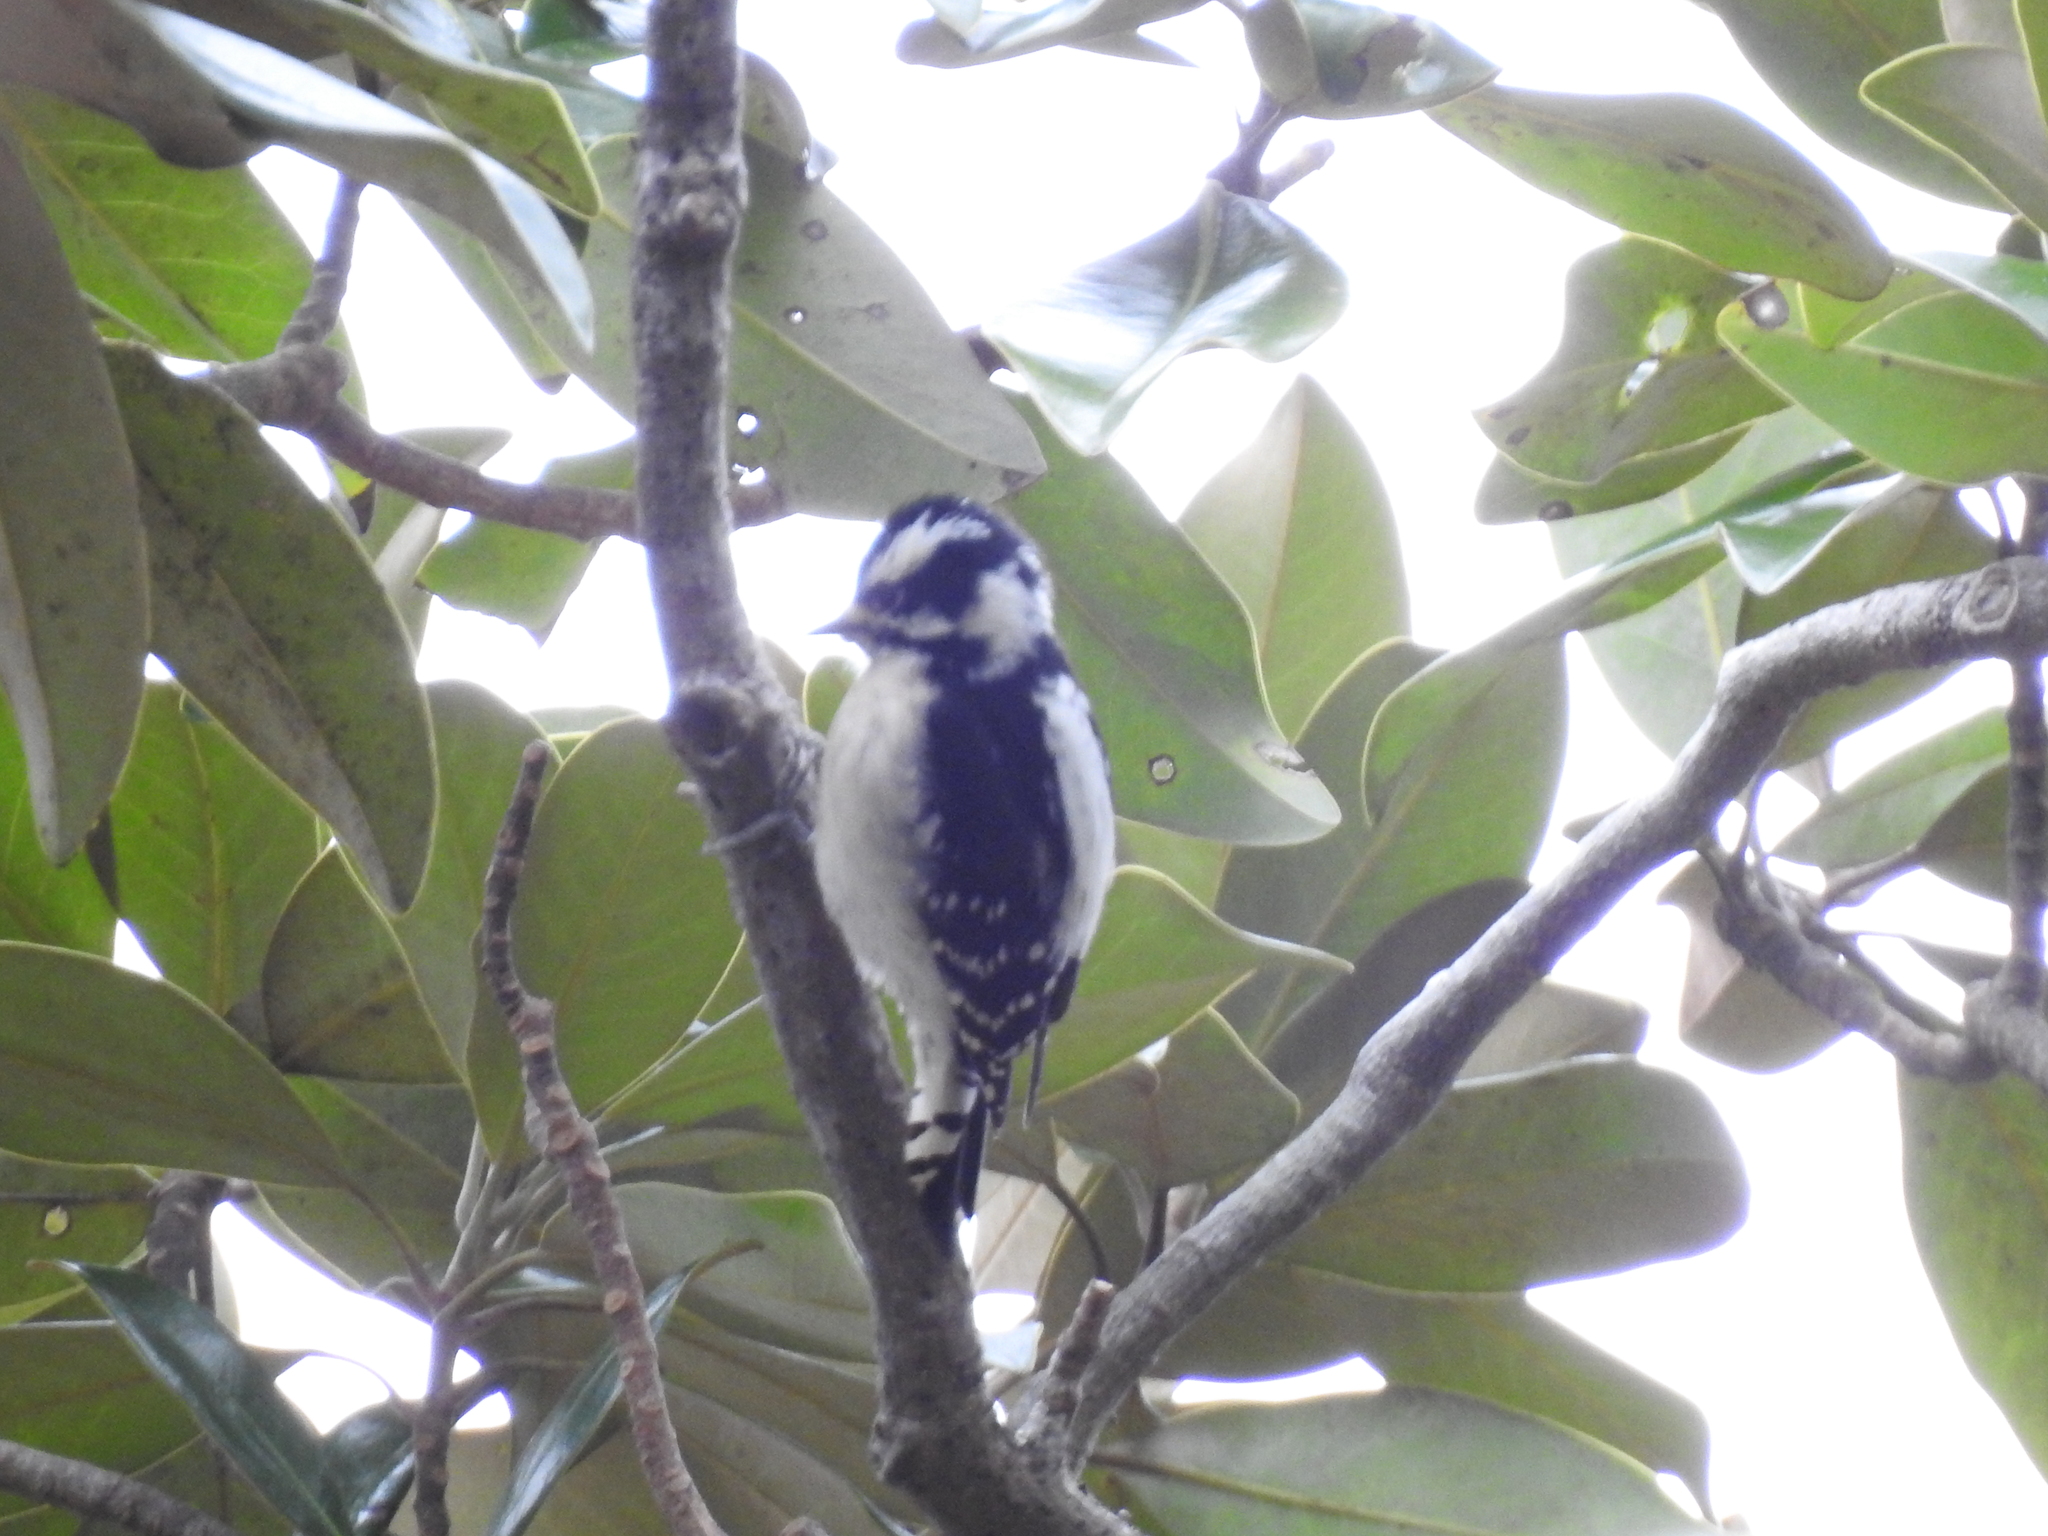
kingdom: Animalia
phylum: Chordata
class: Aves
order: Piciformes
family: Picidae
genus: Dryobates
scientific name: Dryobates pubescens
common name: Downy woodpecker
